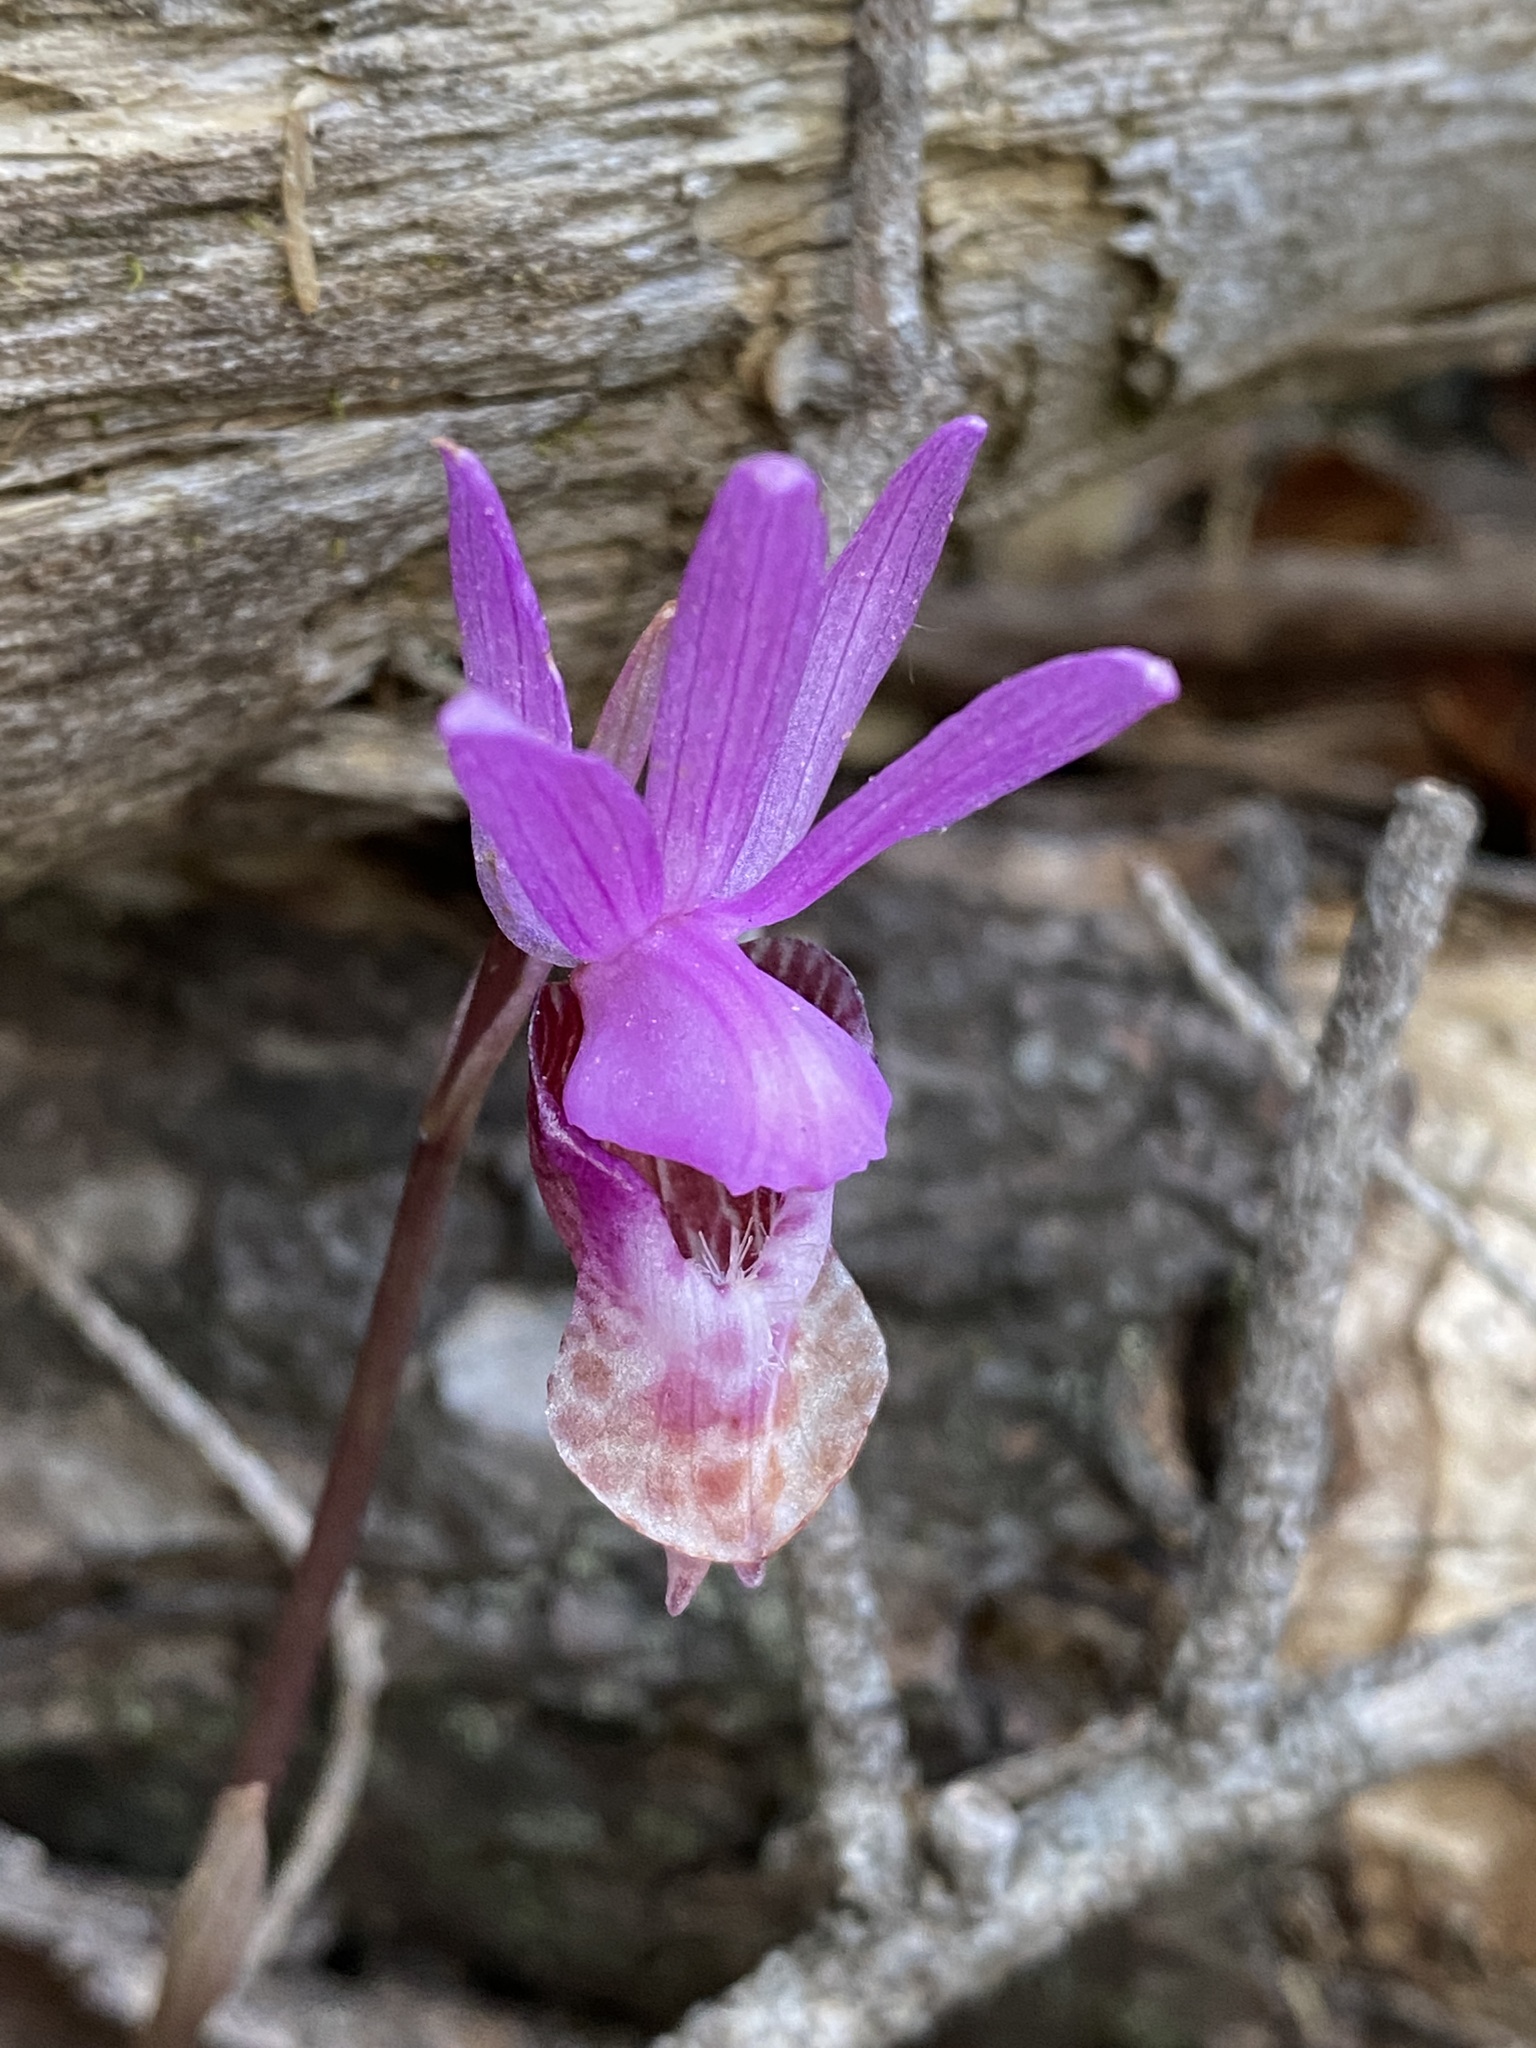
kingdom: Plantae
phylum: Tracheophyta
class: Liliopsida
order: Asparagales
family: Orchidaceae
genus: Calypso
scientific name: Calypso bulbosa
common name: Calypso
